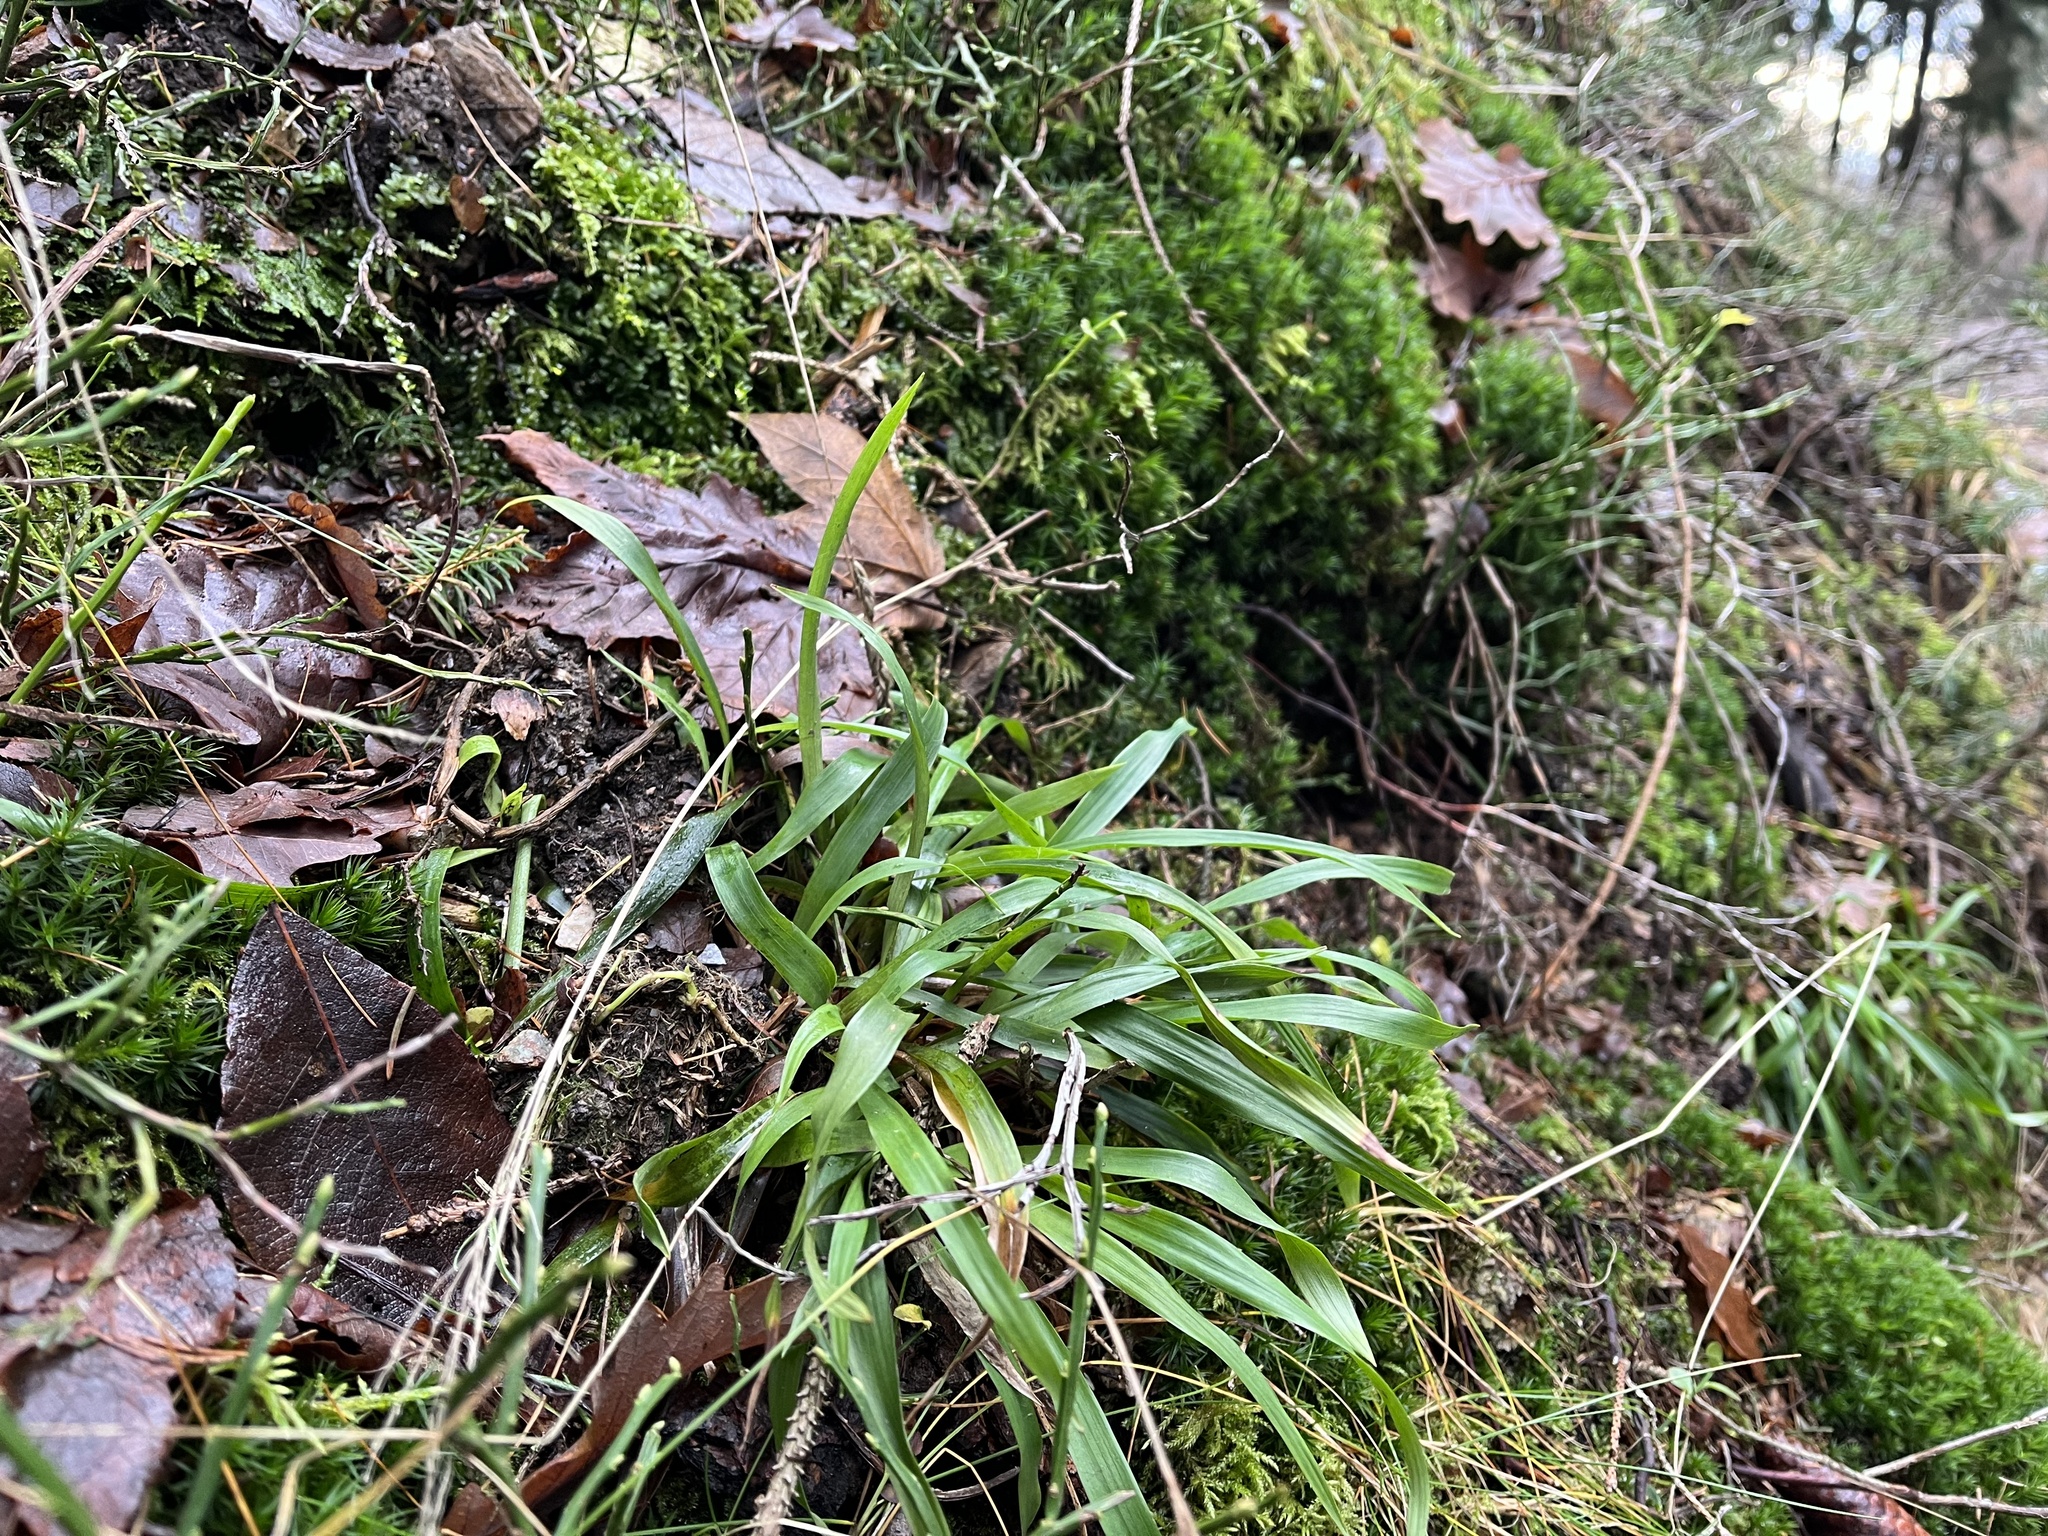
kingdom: Plantae
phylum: Tracheophyta
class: Liliopsida
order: Poales
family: Juncaceae
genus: Luzula
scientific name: Luzula pilosa
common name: Hairy wood-rush
